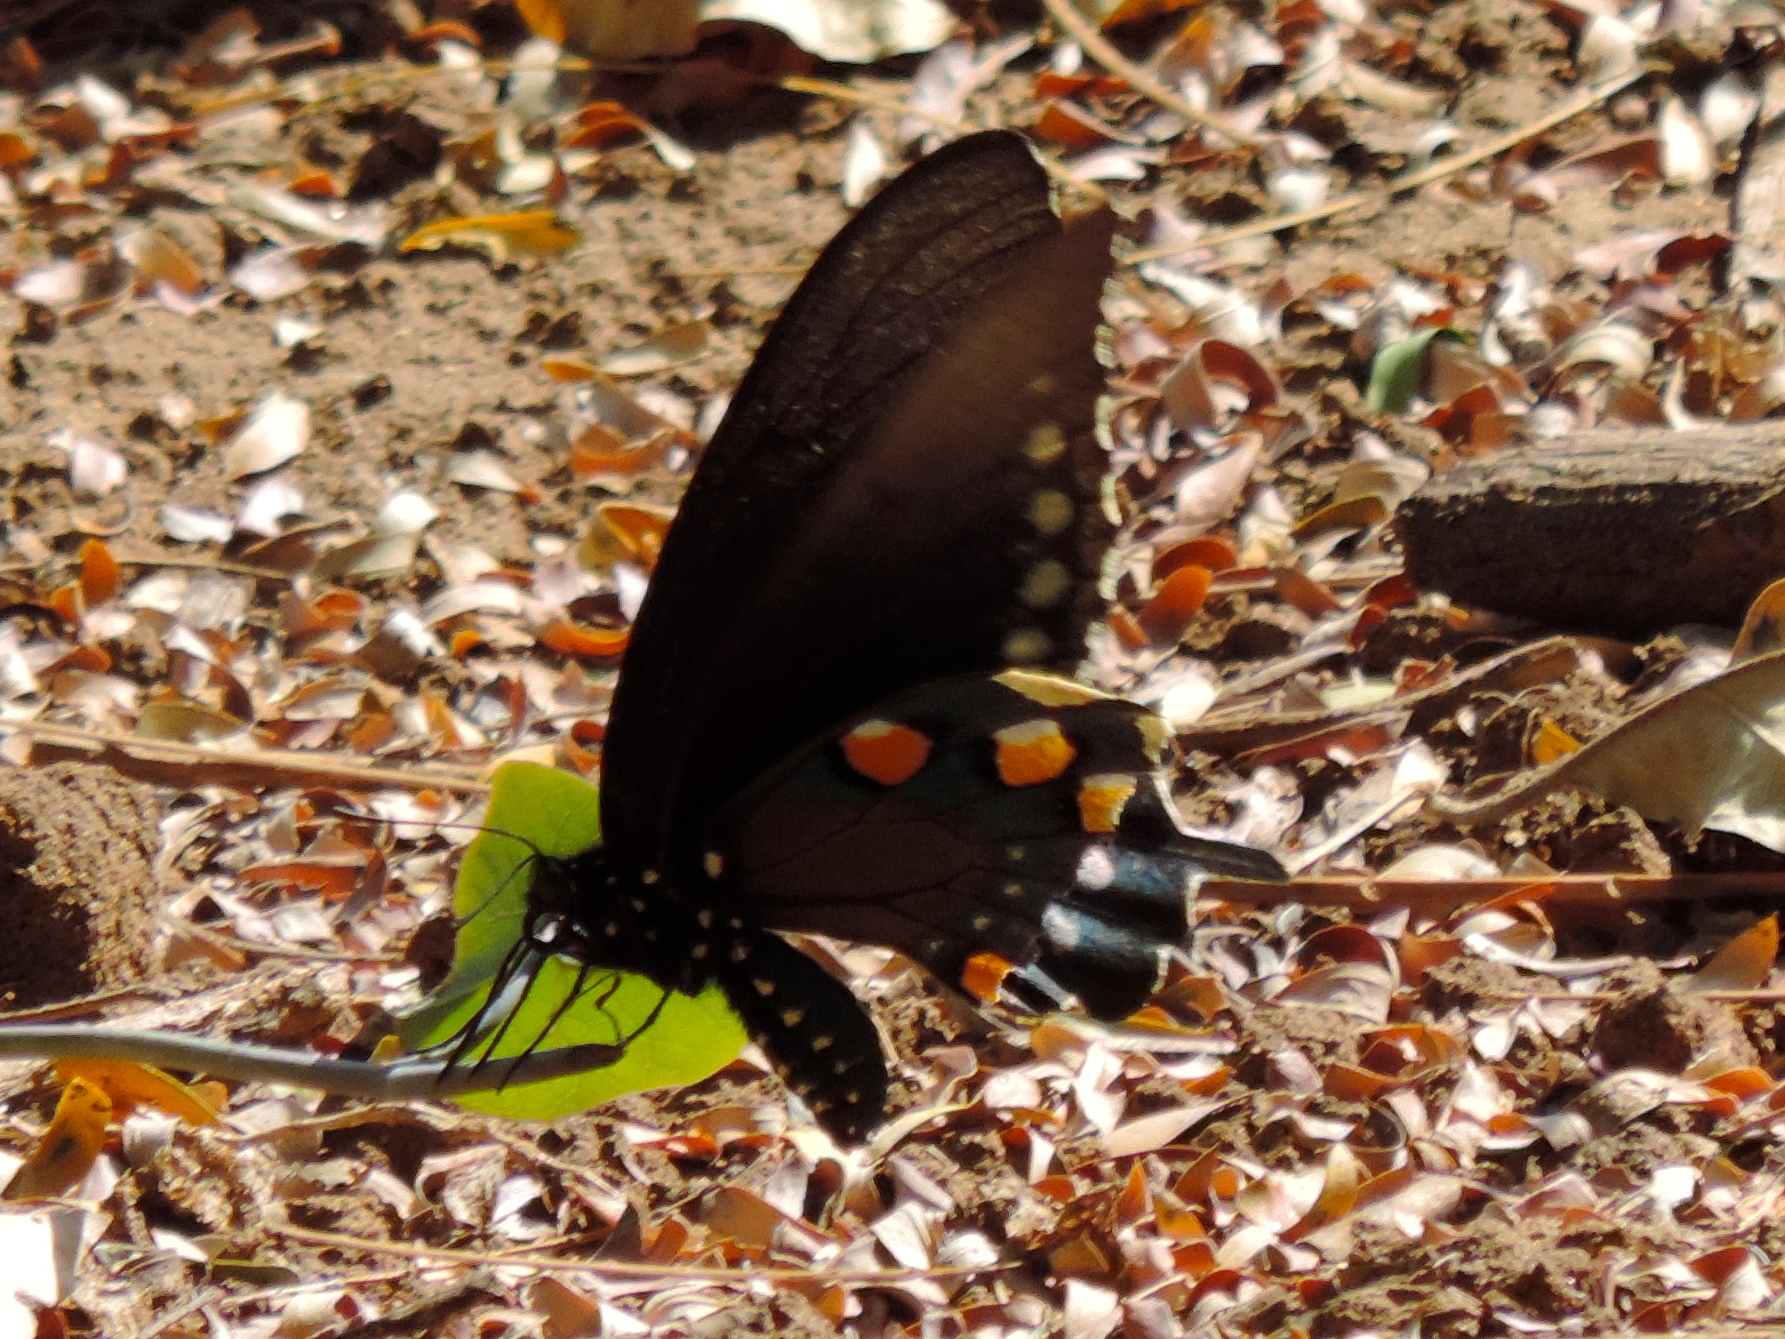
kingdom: Animalia
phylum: Arthropoda
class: Insecta
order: Lepidoptera
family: Papilionidae
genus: Battus
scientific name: Battus philenor
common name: Pipevine swallowtail
